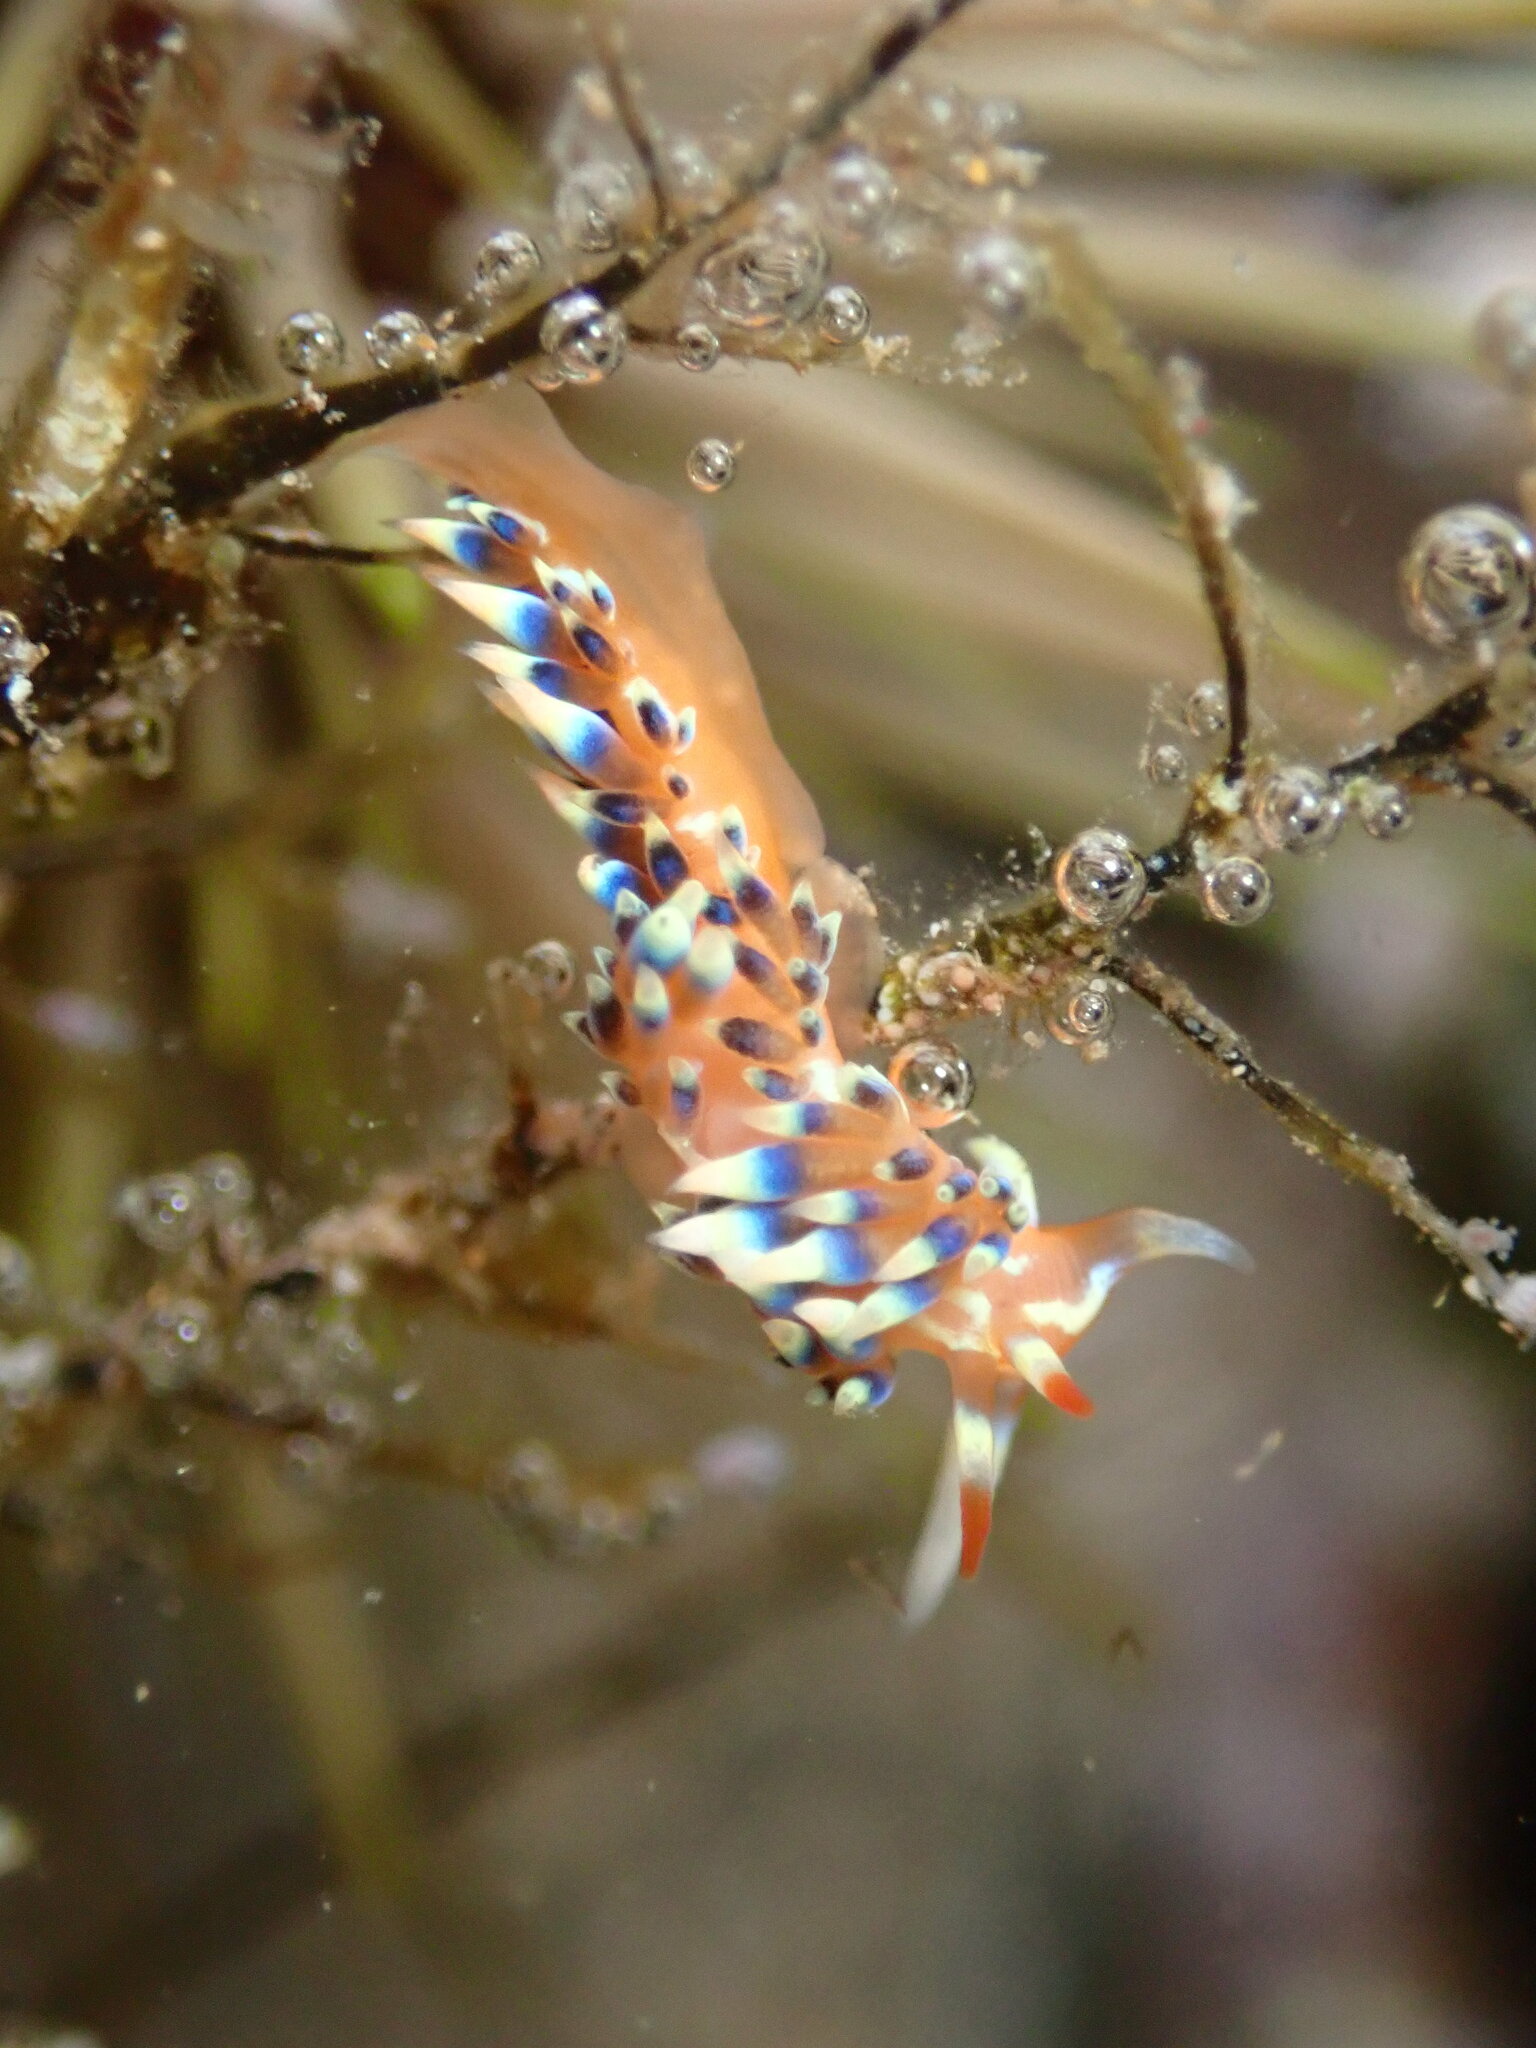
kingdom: Animalia
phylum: Mollusca
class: Gastropoda
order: Nudibranchia
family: Facelinidae
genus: Caloria
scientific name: Caloria indica
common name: Sea slug
